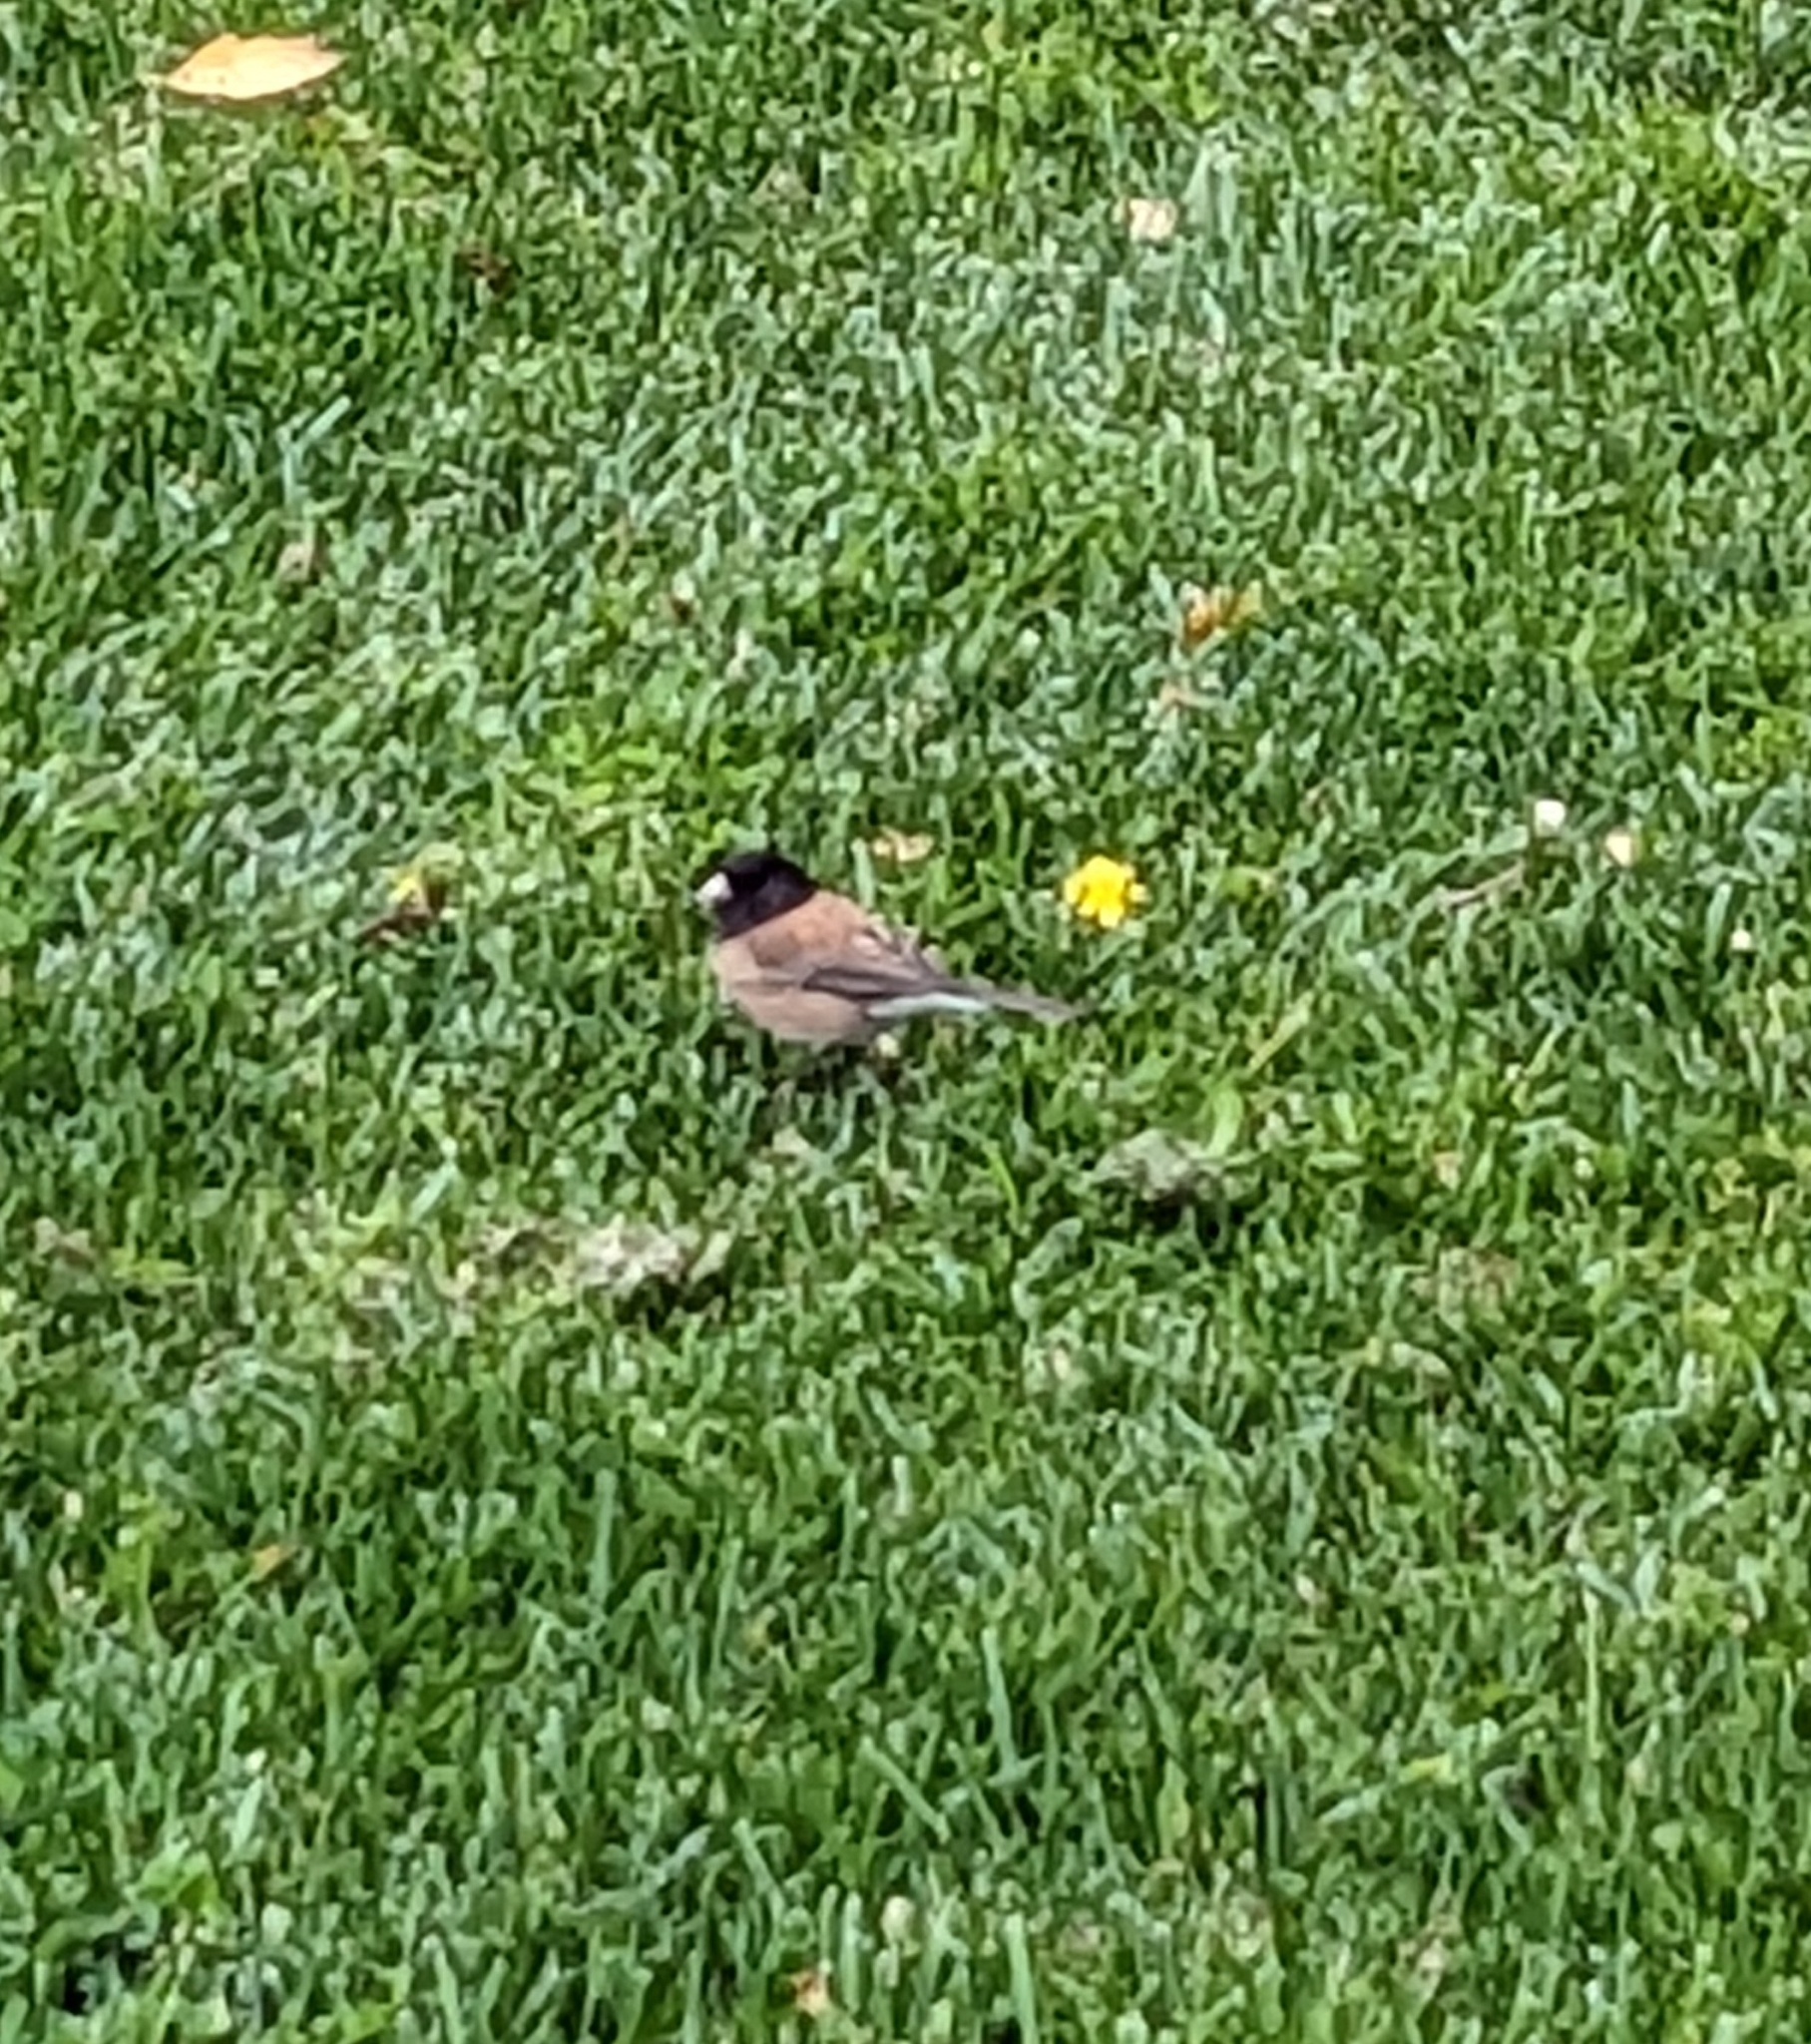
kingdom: Animalia
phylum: Chordata
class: Aves
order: Passeriformes
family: Passerellidae
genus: Junco
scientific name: Junco hyemalis
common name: Dark-eyed junco
